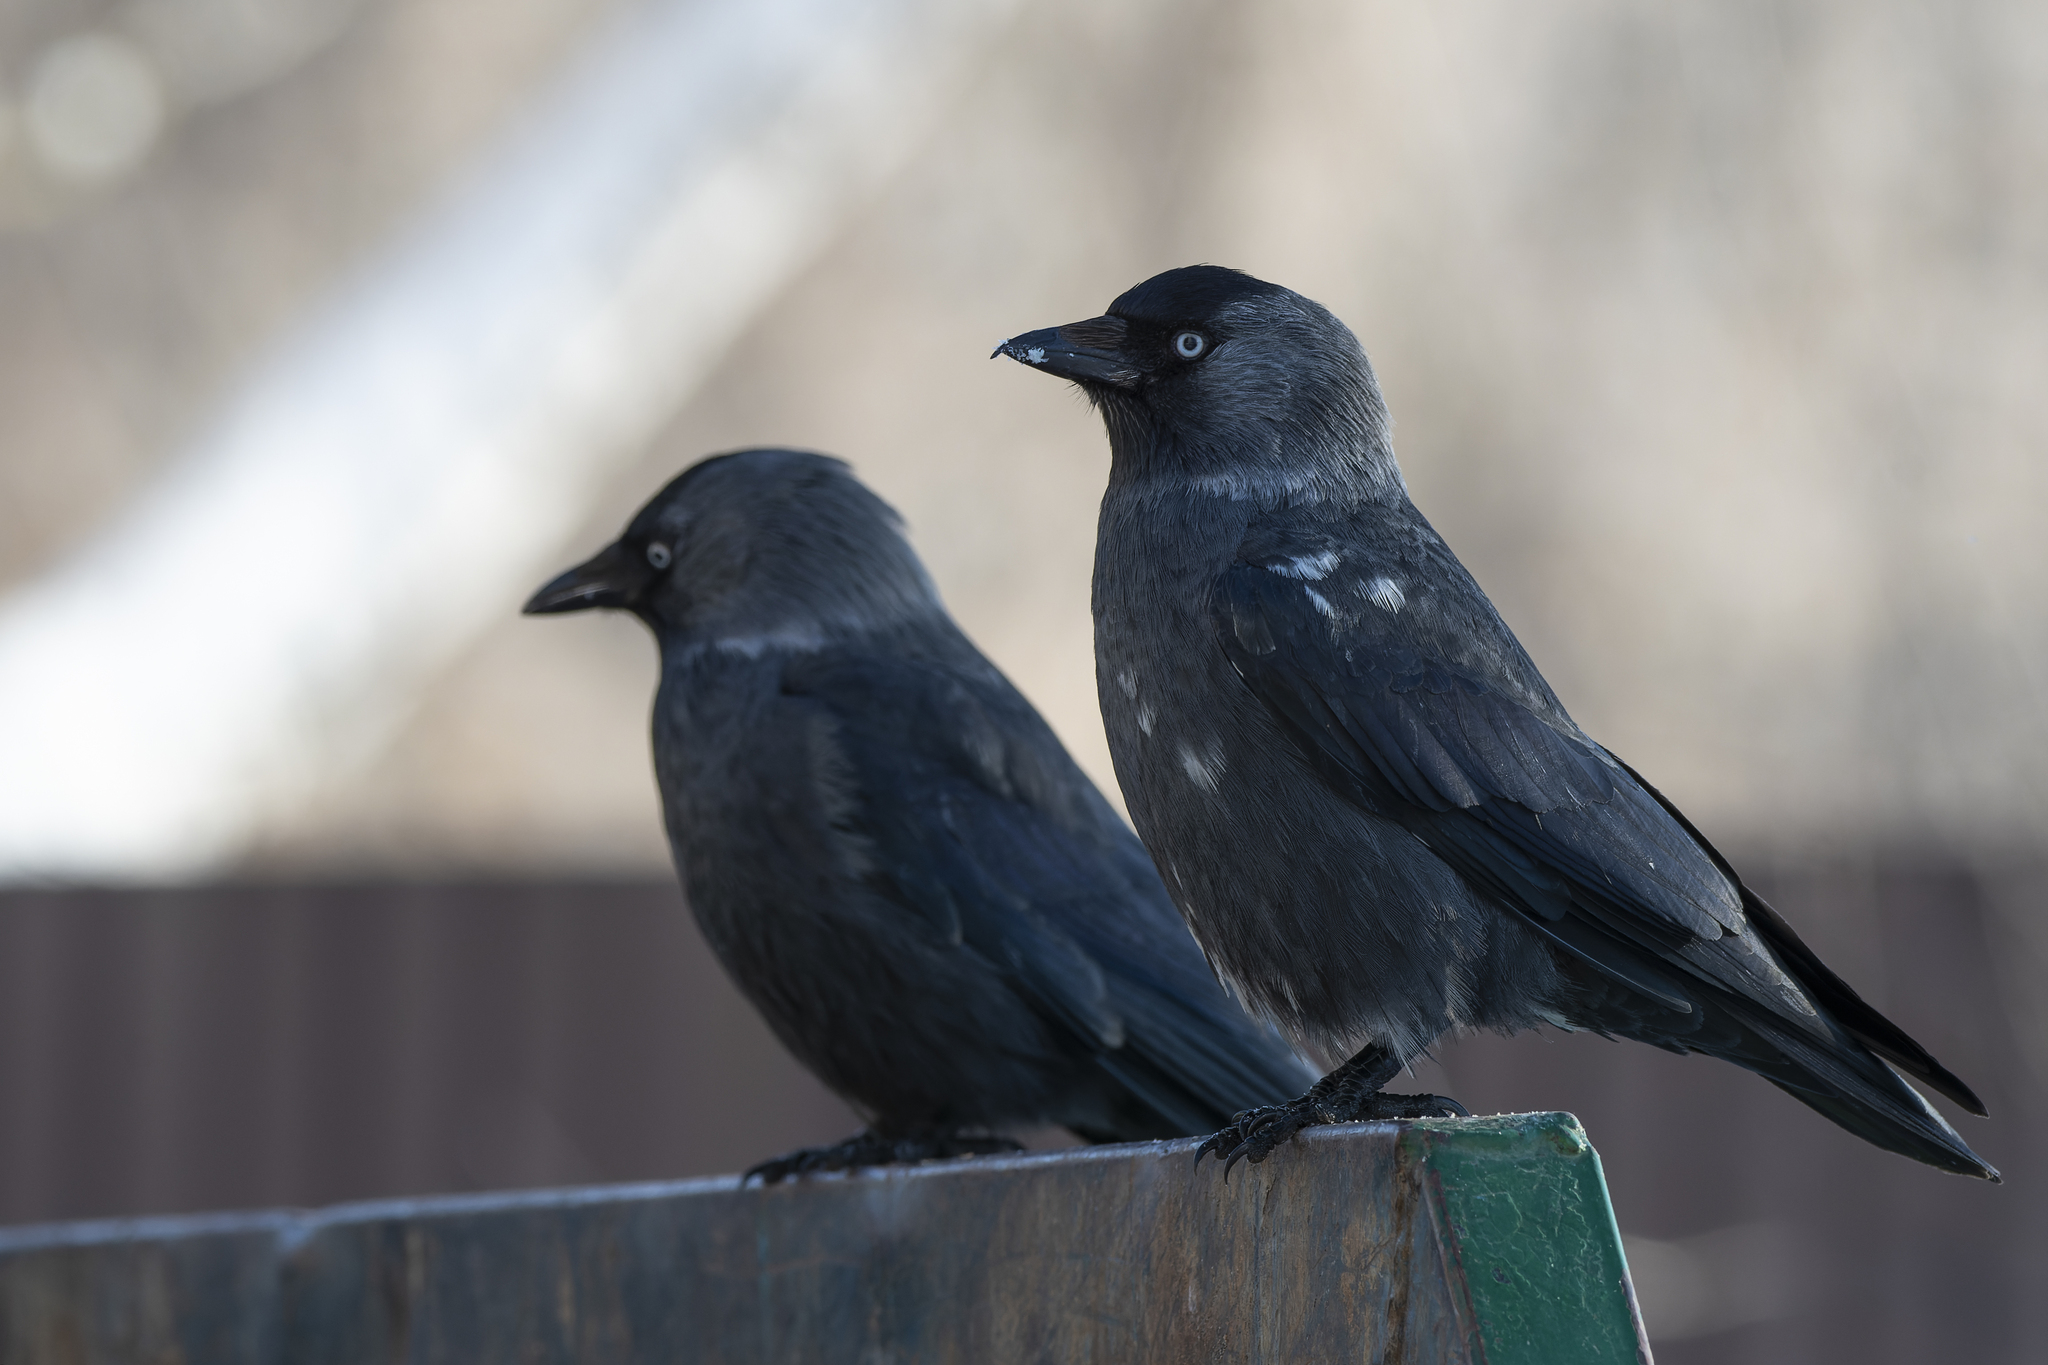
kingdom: Animalia
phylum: Chordata
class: Aves
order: Passeriformes
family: Corvidae
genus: Coloeus
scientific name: Coloeus monedula
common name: Western jackdaw
